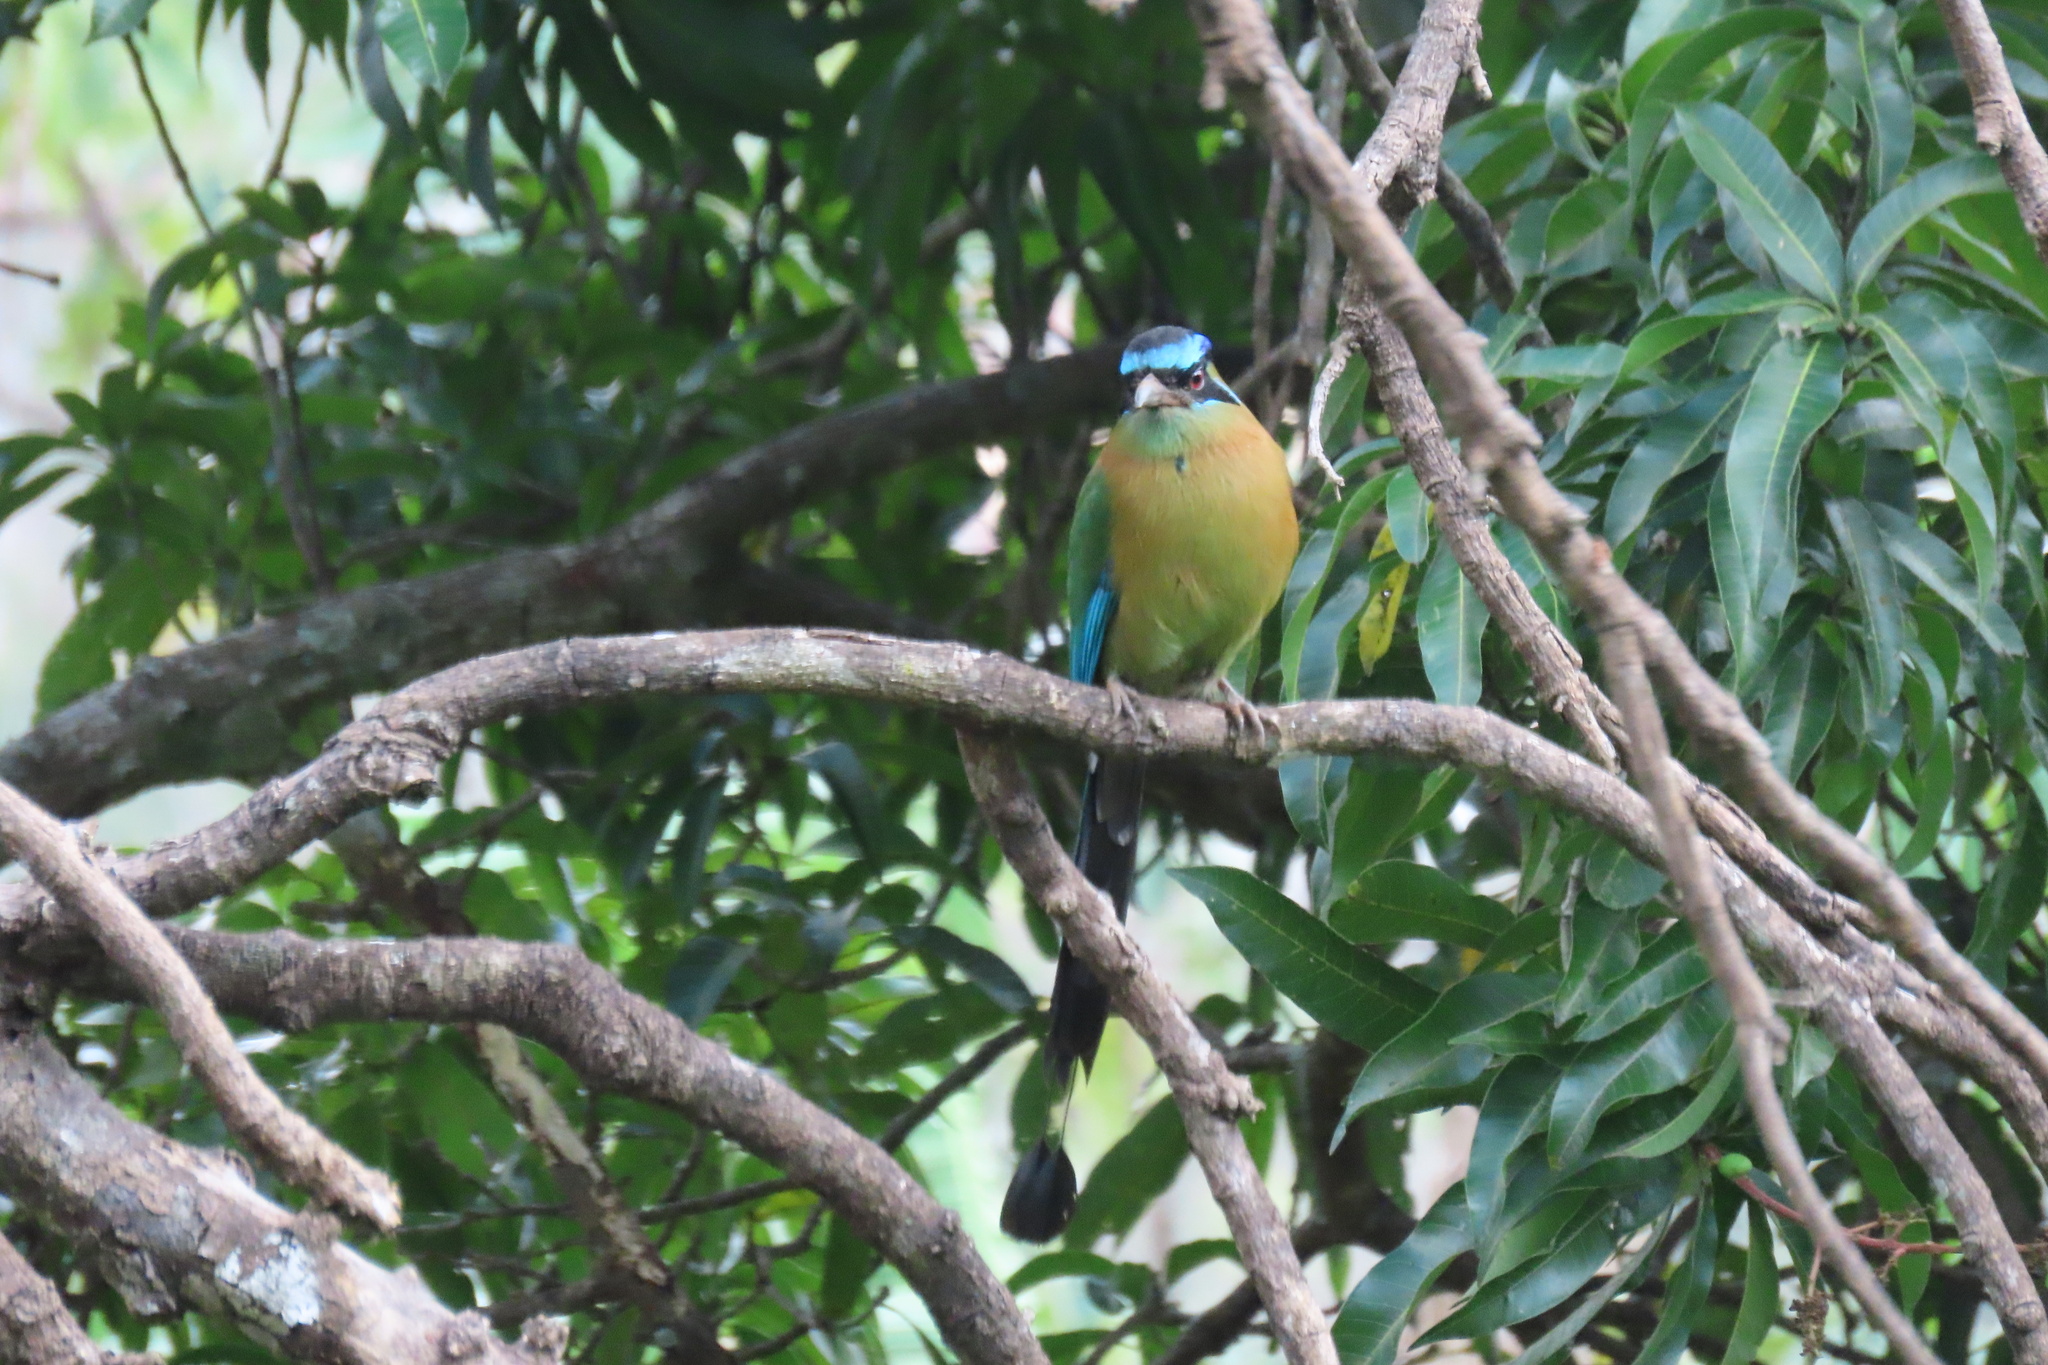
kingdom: Animalia
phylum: Chordata
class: Aves
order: Coraciiformes
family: Momotidae
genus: Momotus
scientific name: Momotus lessonii
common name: Lesson's motmot
